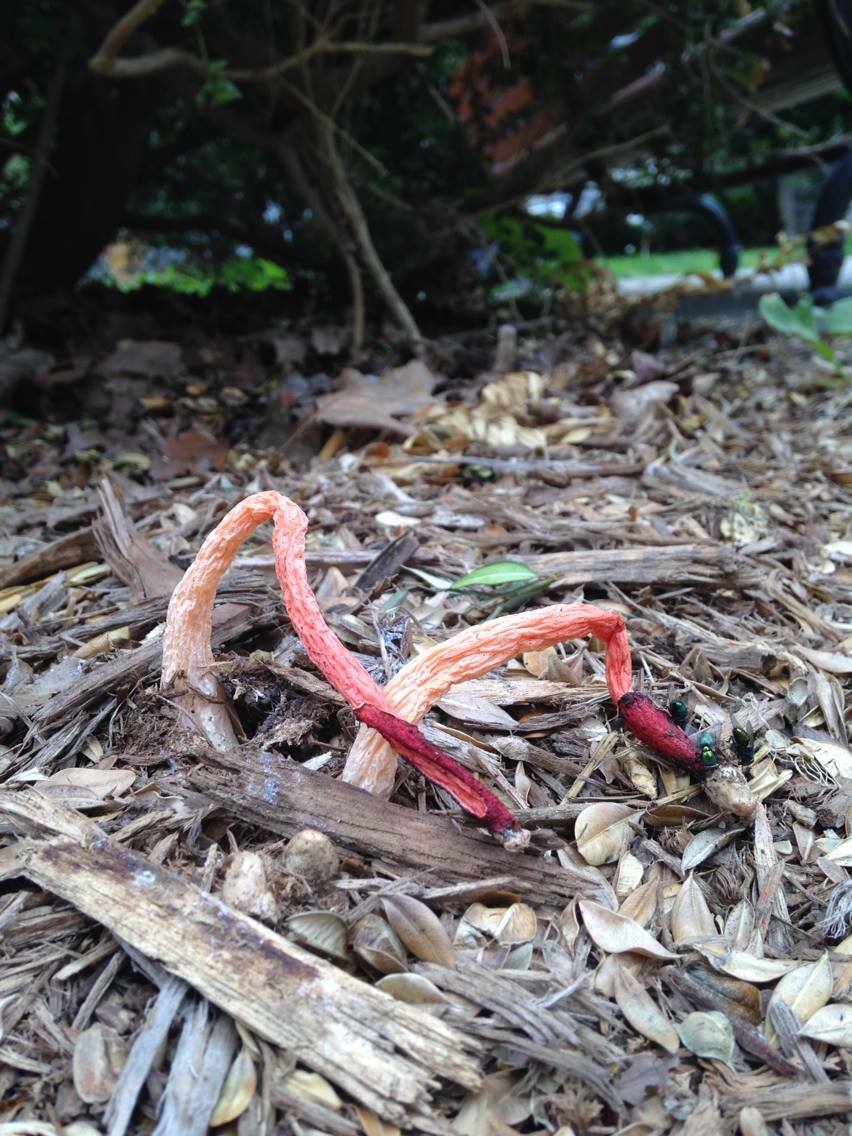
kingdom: Fungi
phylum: Basidiomycota
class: Agaricomycetes
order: Phallales
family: Phallaceae
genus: Phallus
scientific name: Phallus rugulosus
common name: Wrinkly stinkhorn
